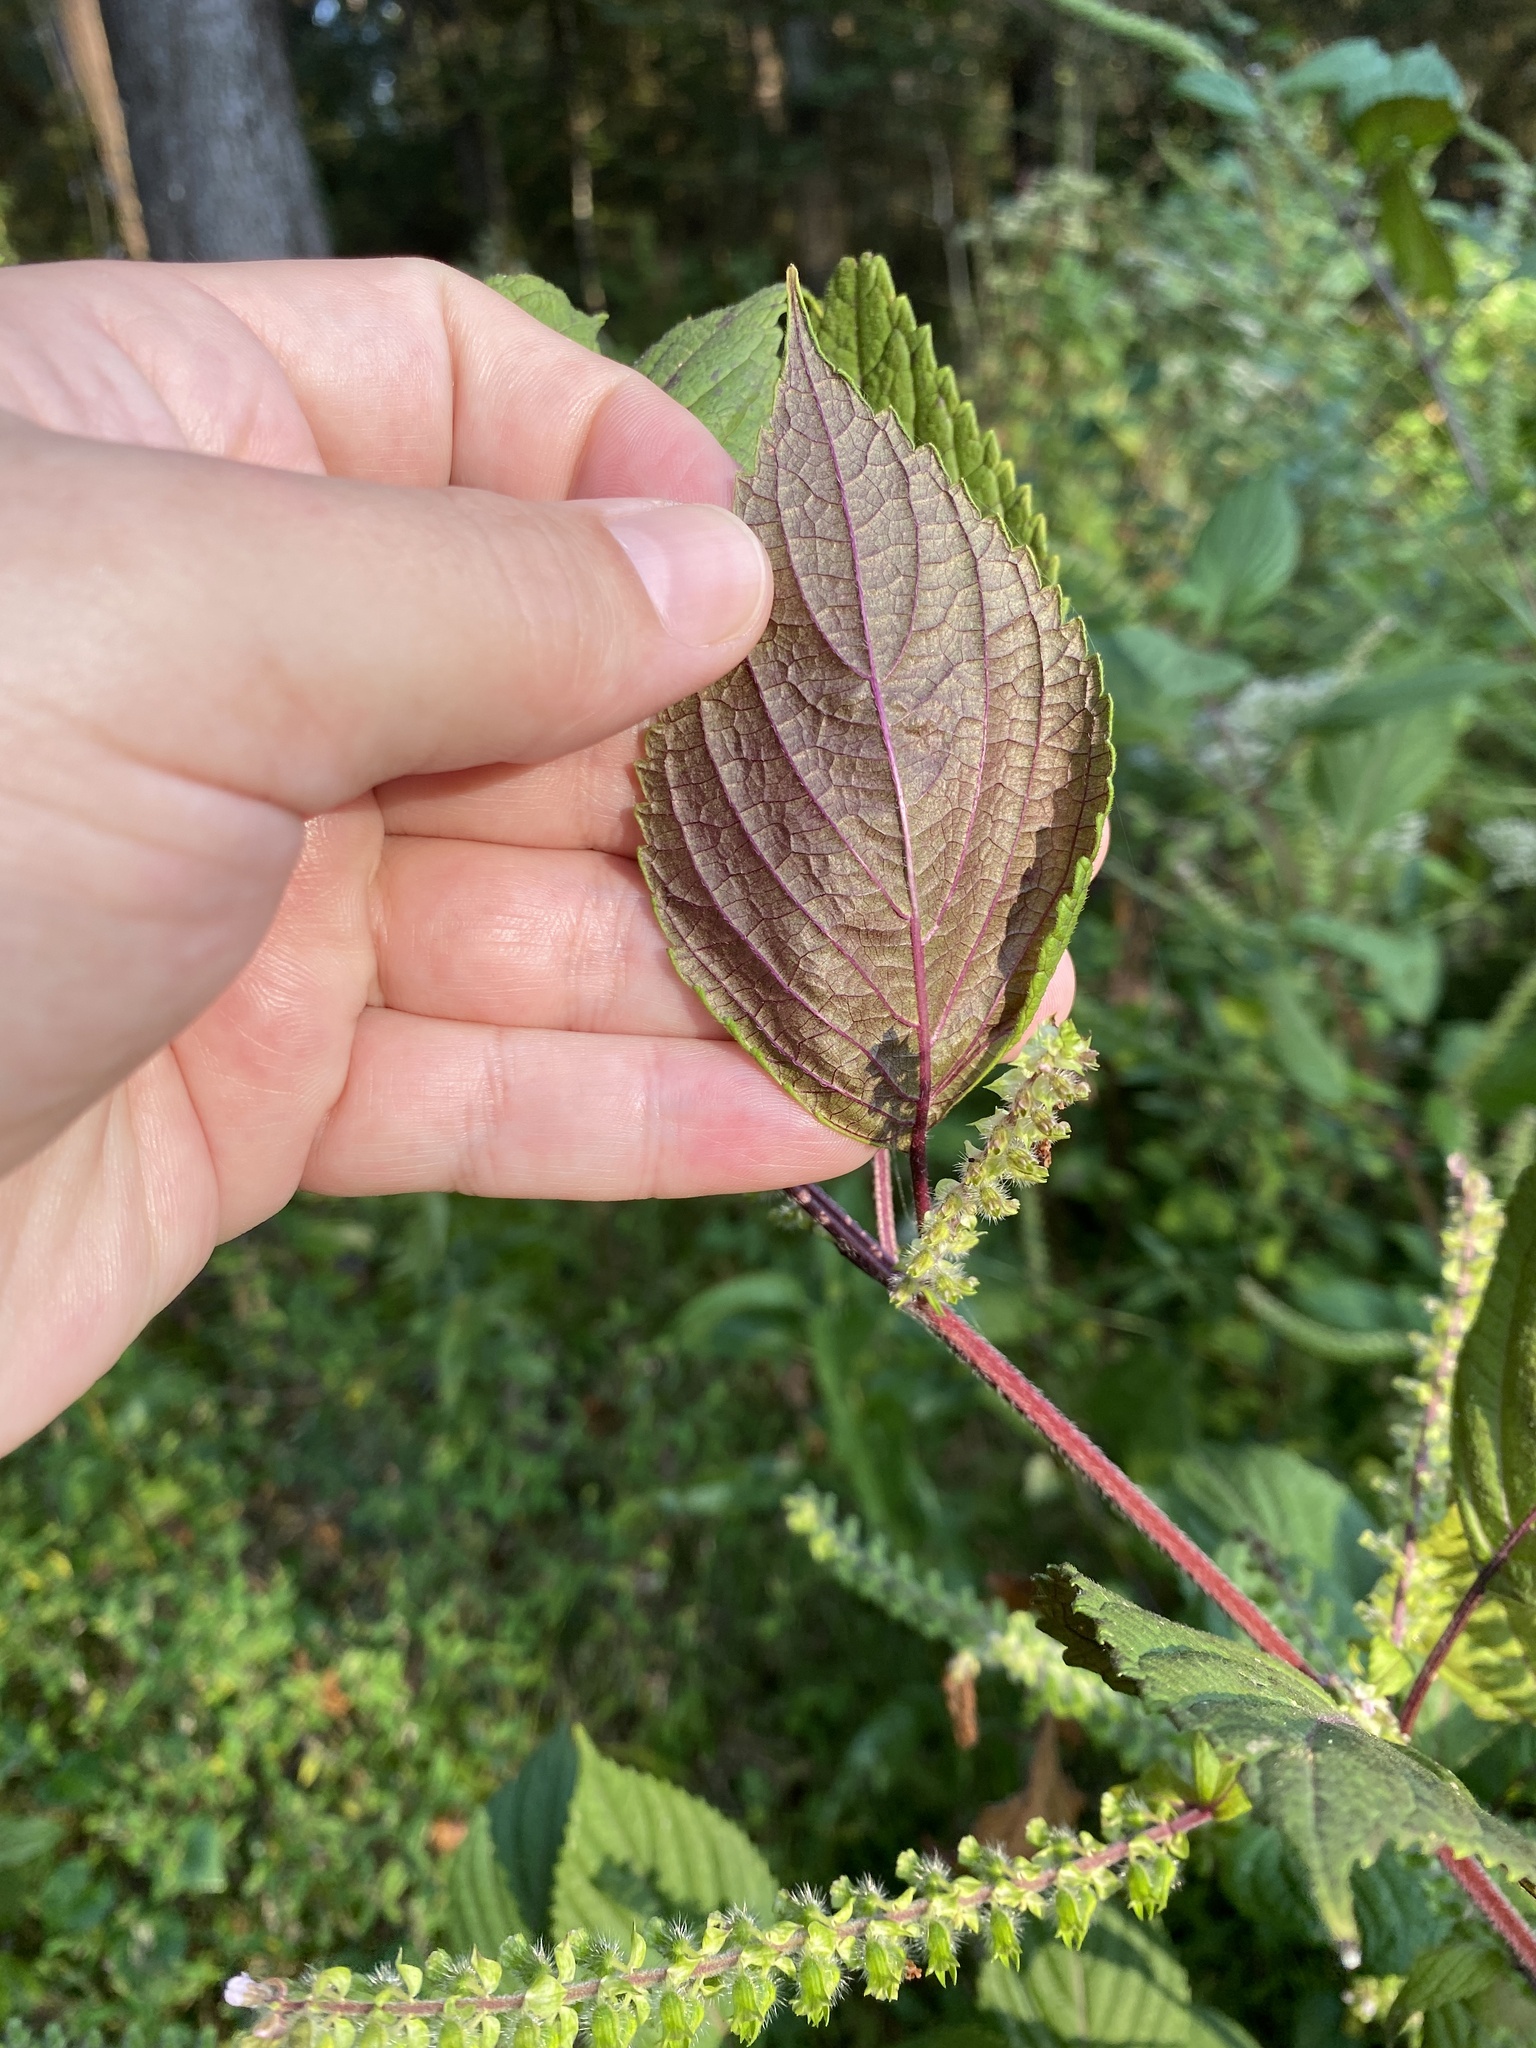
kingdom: Plantae
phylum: Tracheophyta
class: Magnoliopsida
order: Lamiales
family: Lamiaceae
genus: Perilla
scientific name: Perilla frutescens
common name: Perilla
